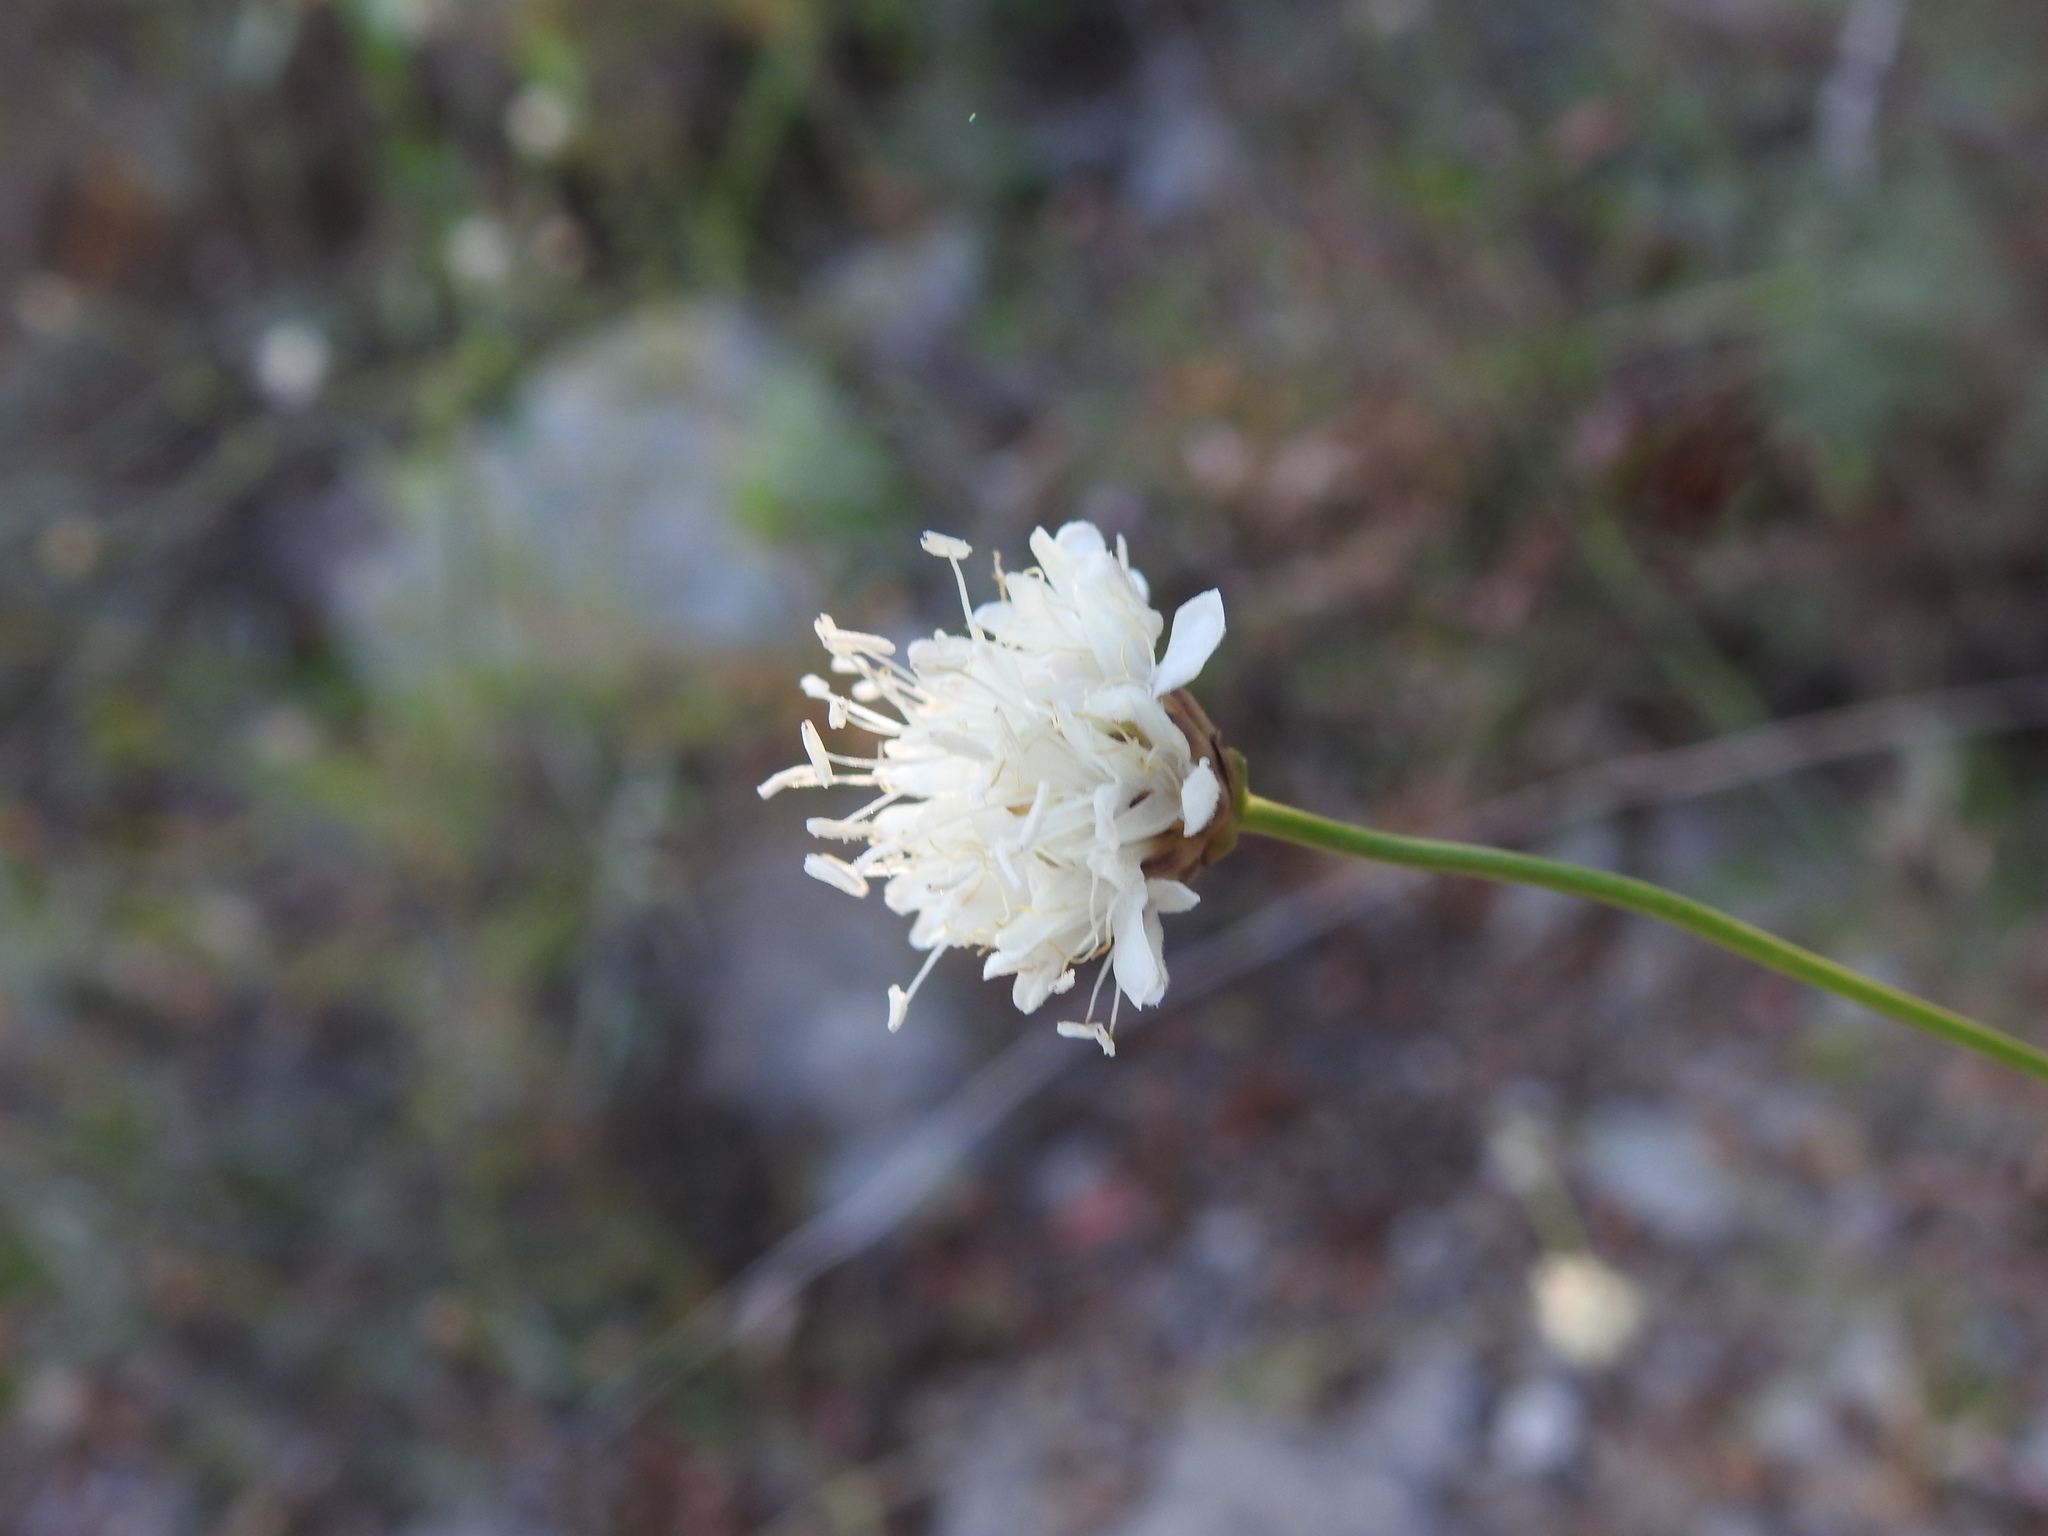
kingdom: Plantae
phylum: Tracheophyta
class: Magnoliopsida
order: Dipsacales
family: Caprifoliaceae
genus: Cephalaria
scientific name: Cephalaria leucantha
